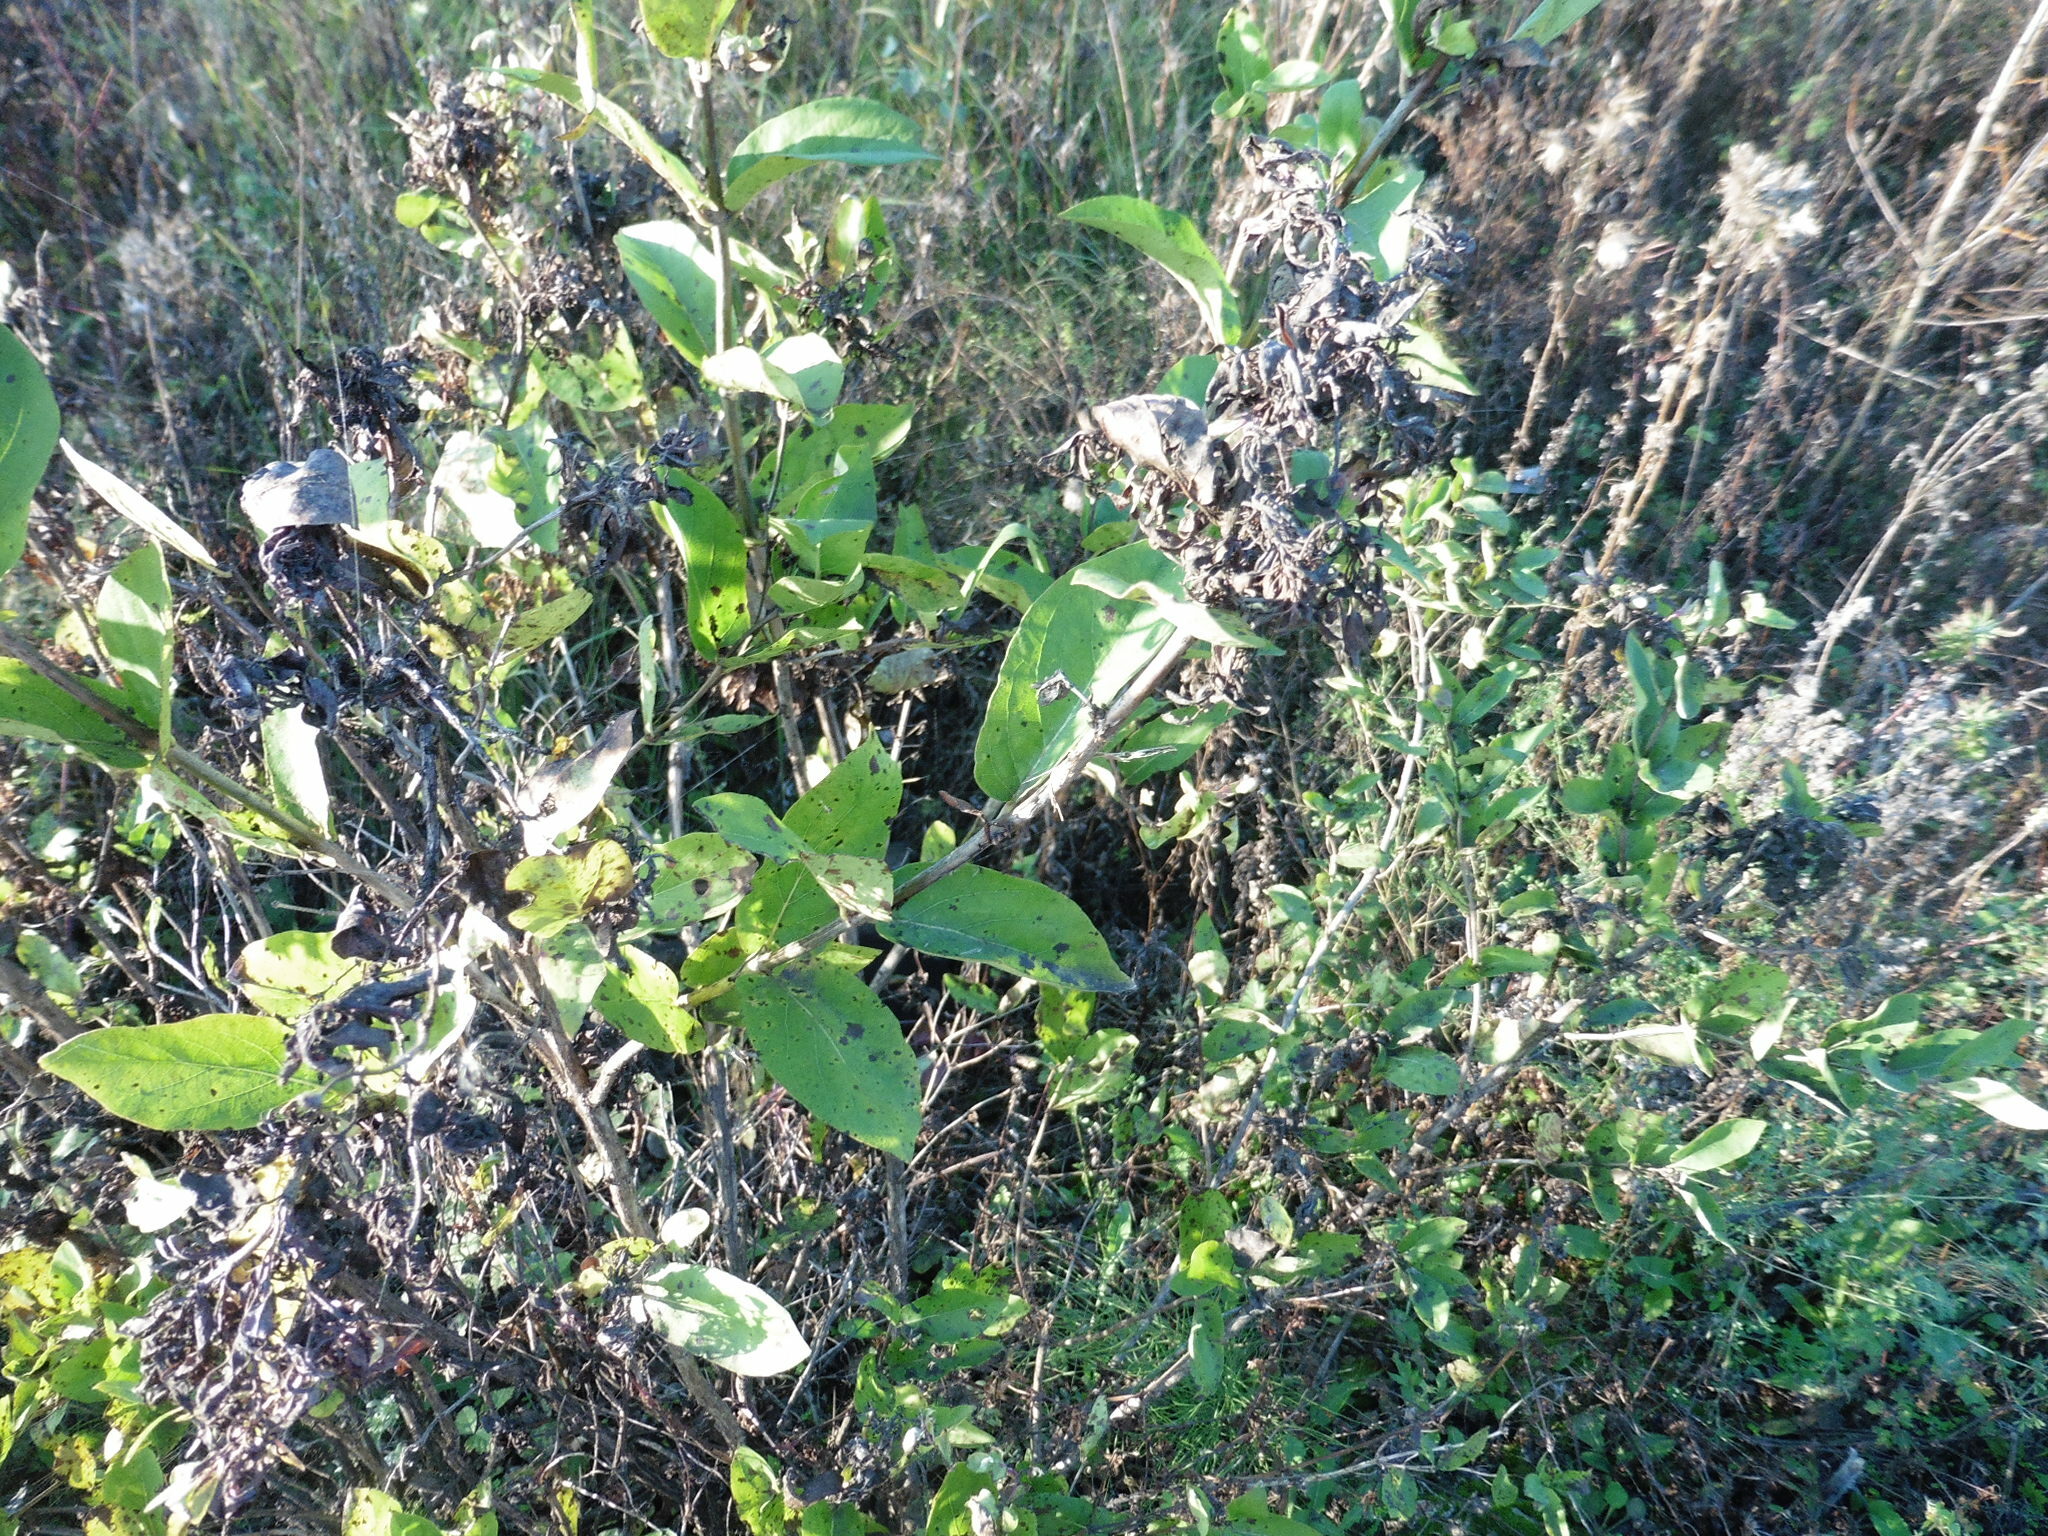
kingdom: Plantae
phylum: Tracheophyta
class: Magnoliopsida
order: Dipsacales
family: Caprifoliaceae
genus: Lonicera
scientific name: Lonicera tatarica
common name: Tatarian honeysuckle
